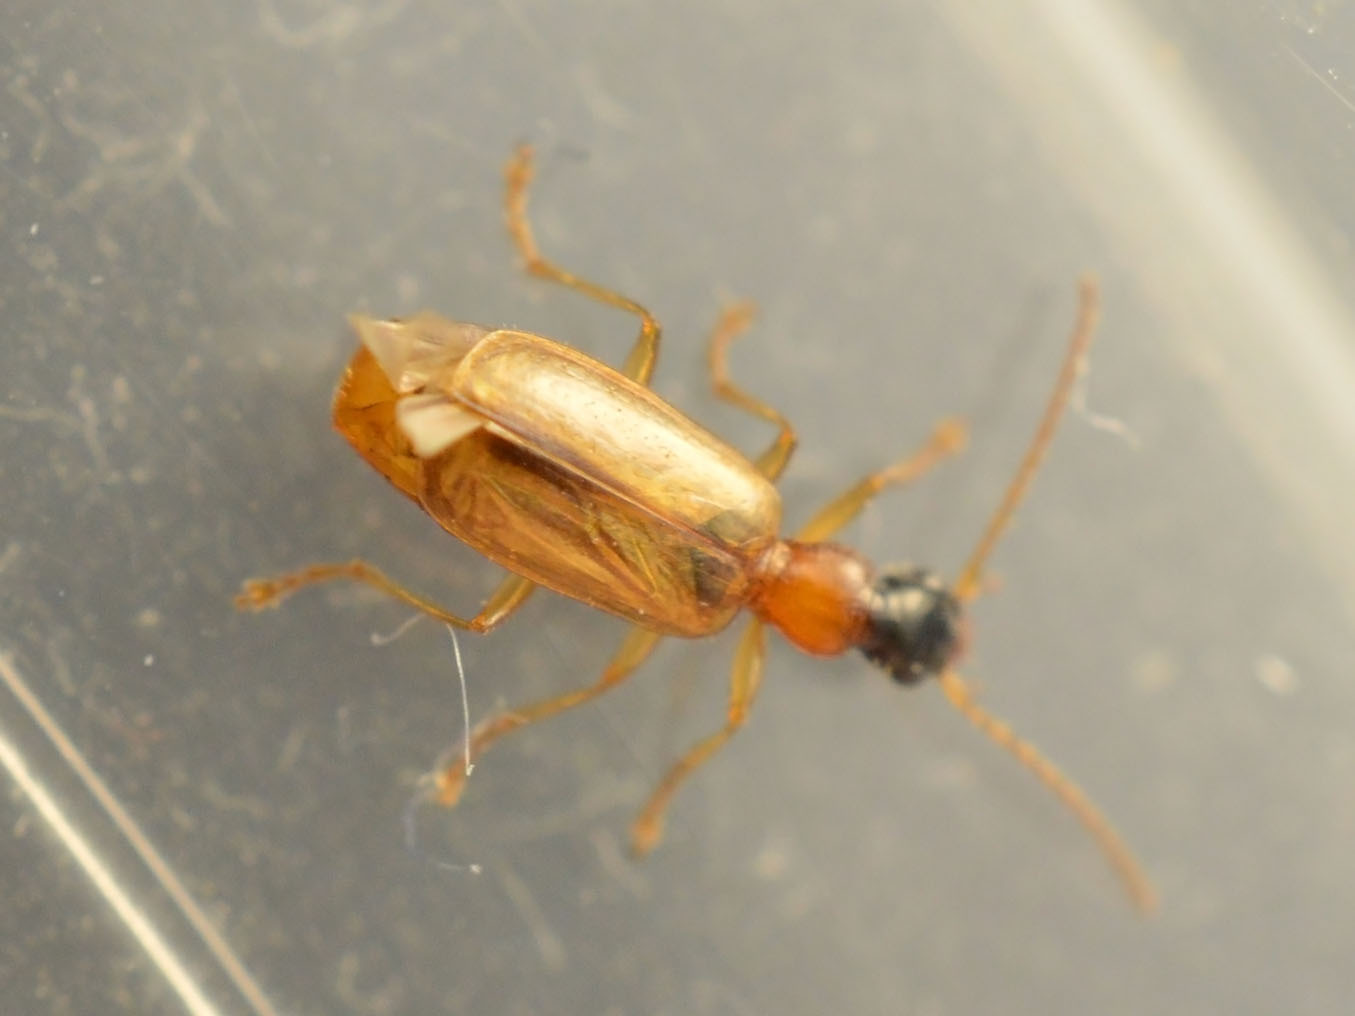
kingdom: Animalia
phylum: Arthropoda
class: Insecta
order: Coleoptera
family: Carabidae
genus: Demetrias
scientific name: Demetrias atricapillus
